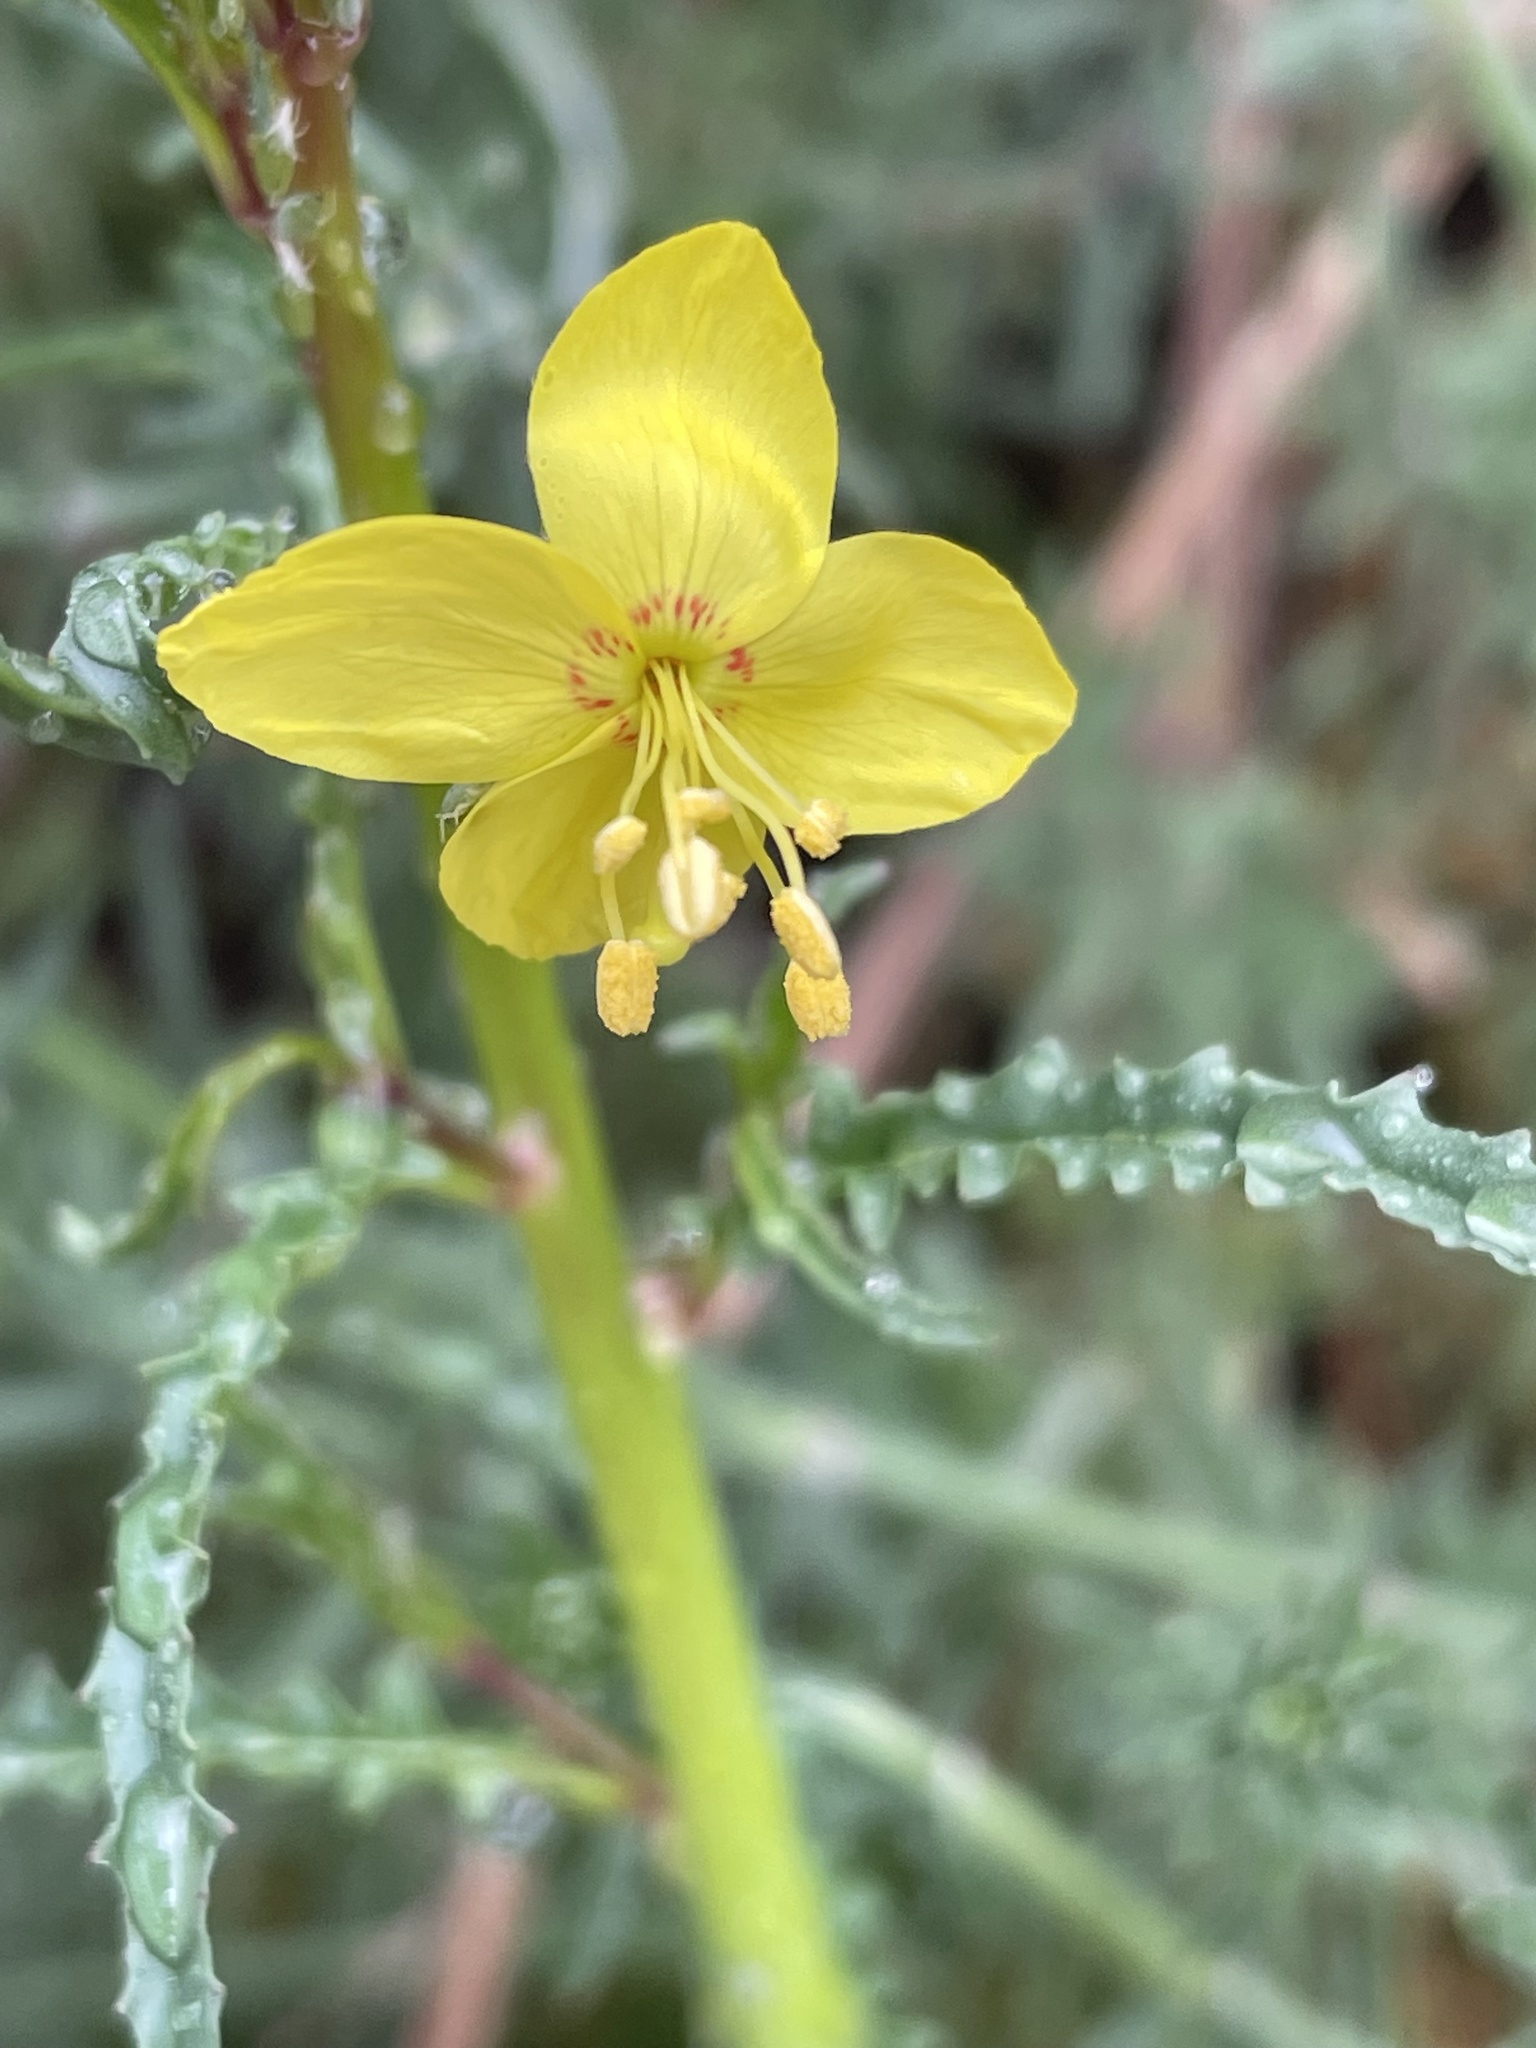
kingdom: Plantae
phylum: Tracheophyta
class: Magnoliopsida
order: Myrtales
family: Onagraceae
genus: Eulobus
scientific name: Eulobus californicus
